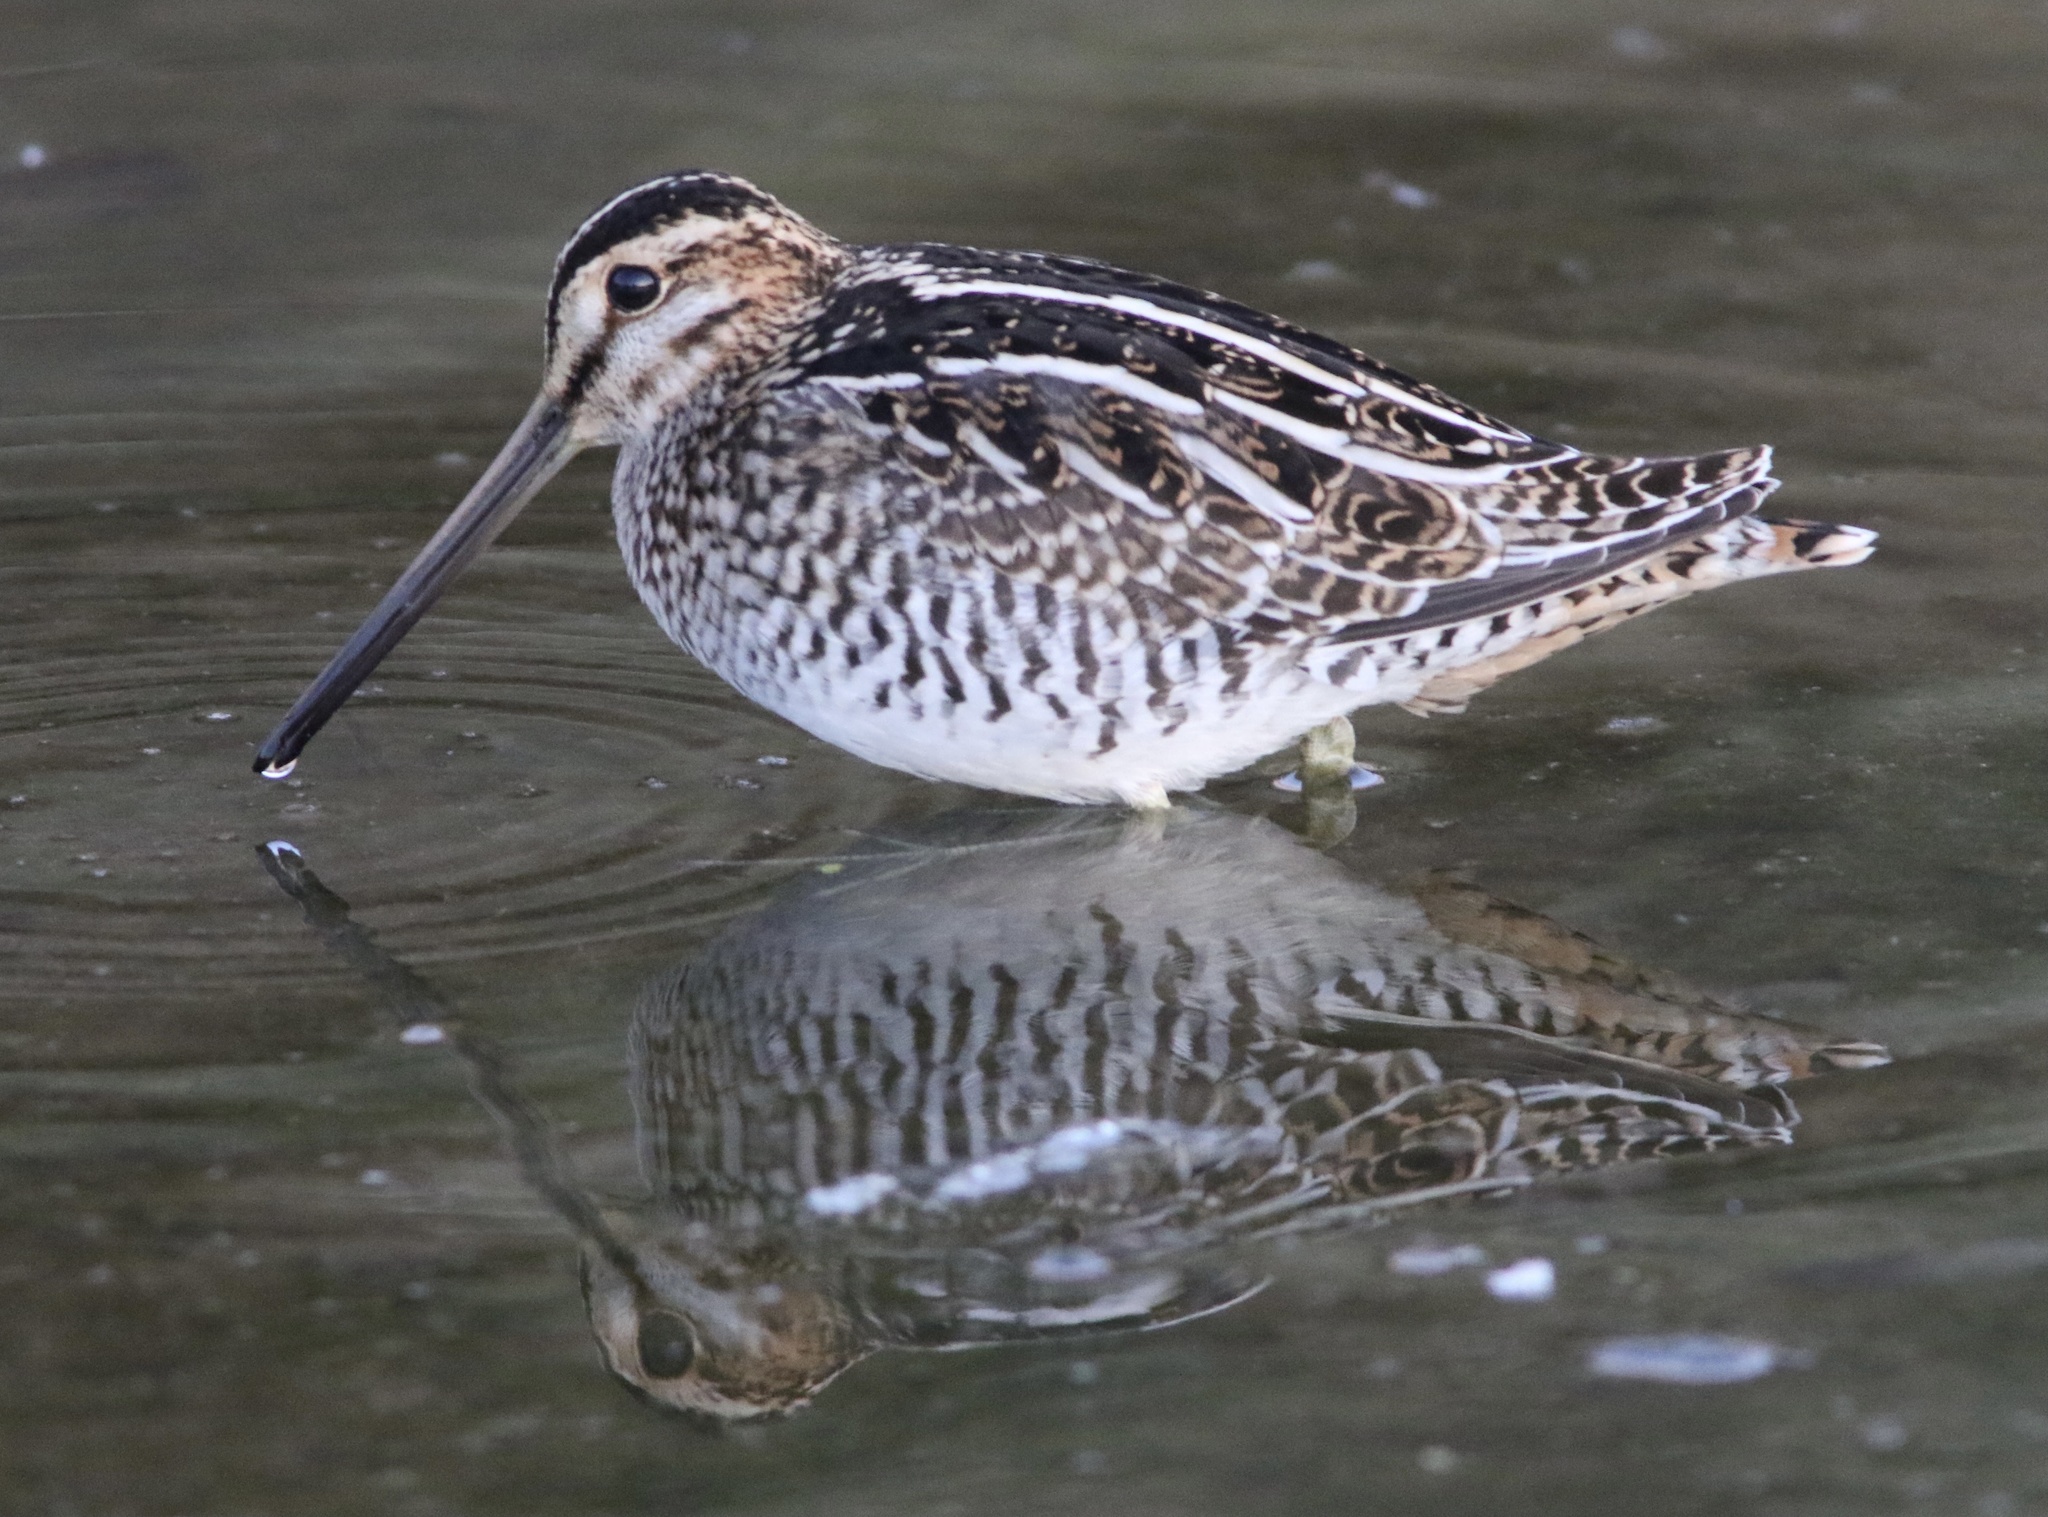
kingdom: Animalia
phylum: Chordata
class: Aves
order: Charadriiformes
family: Scolopacidae
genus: Gallinago
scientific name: Gallinago delicata
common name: Wilson's snipe
